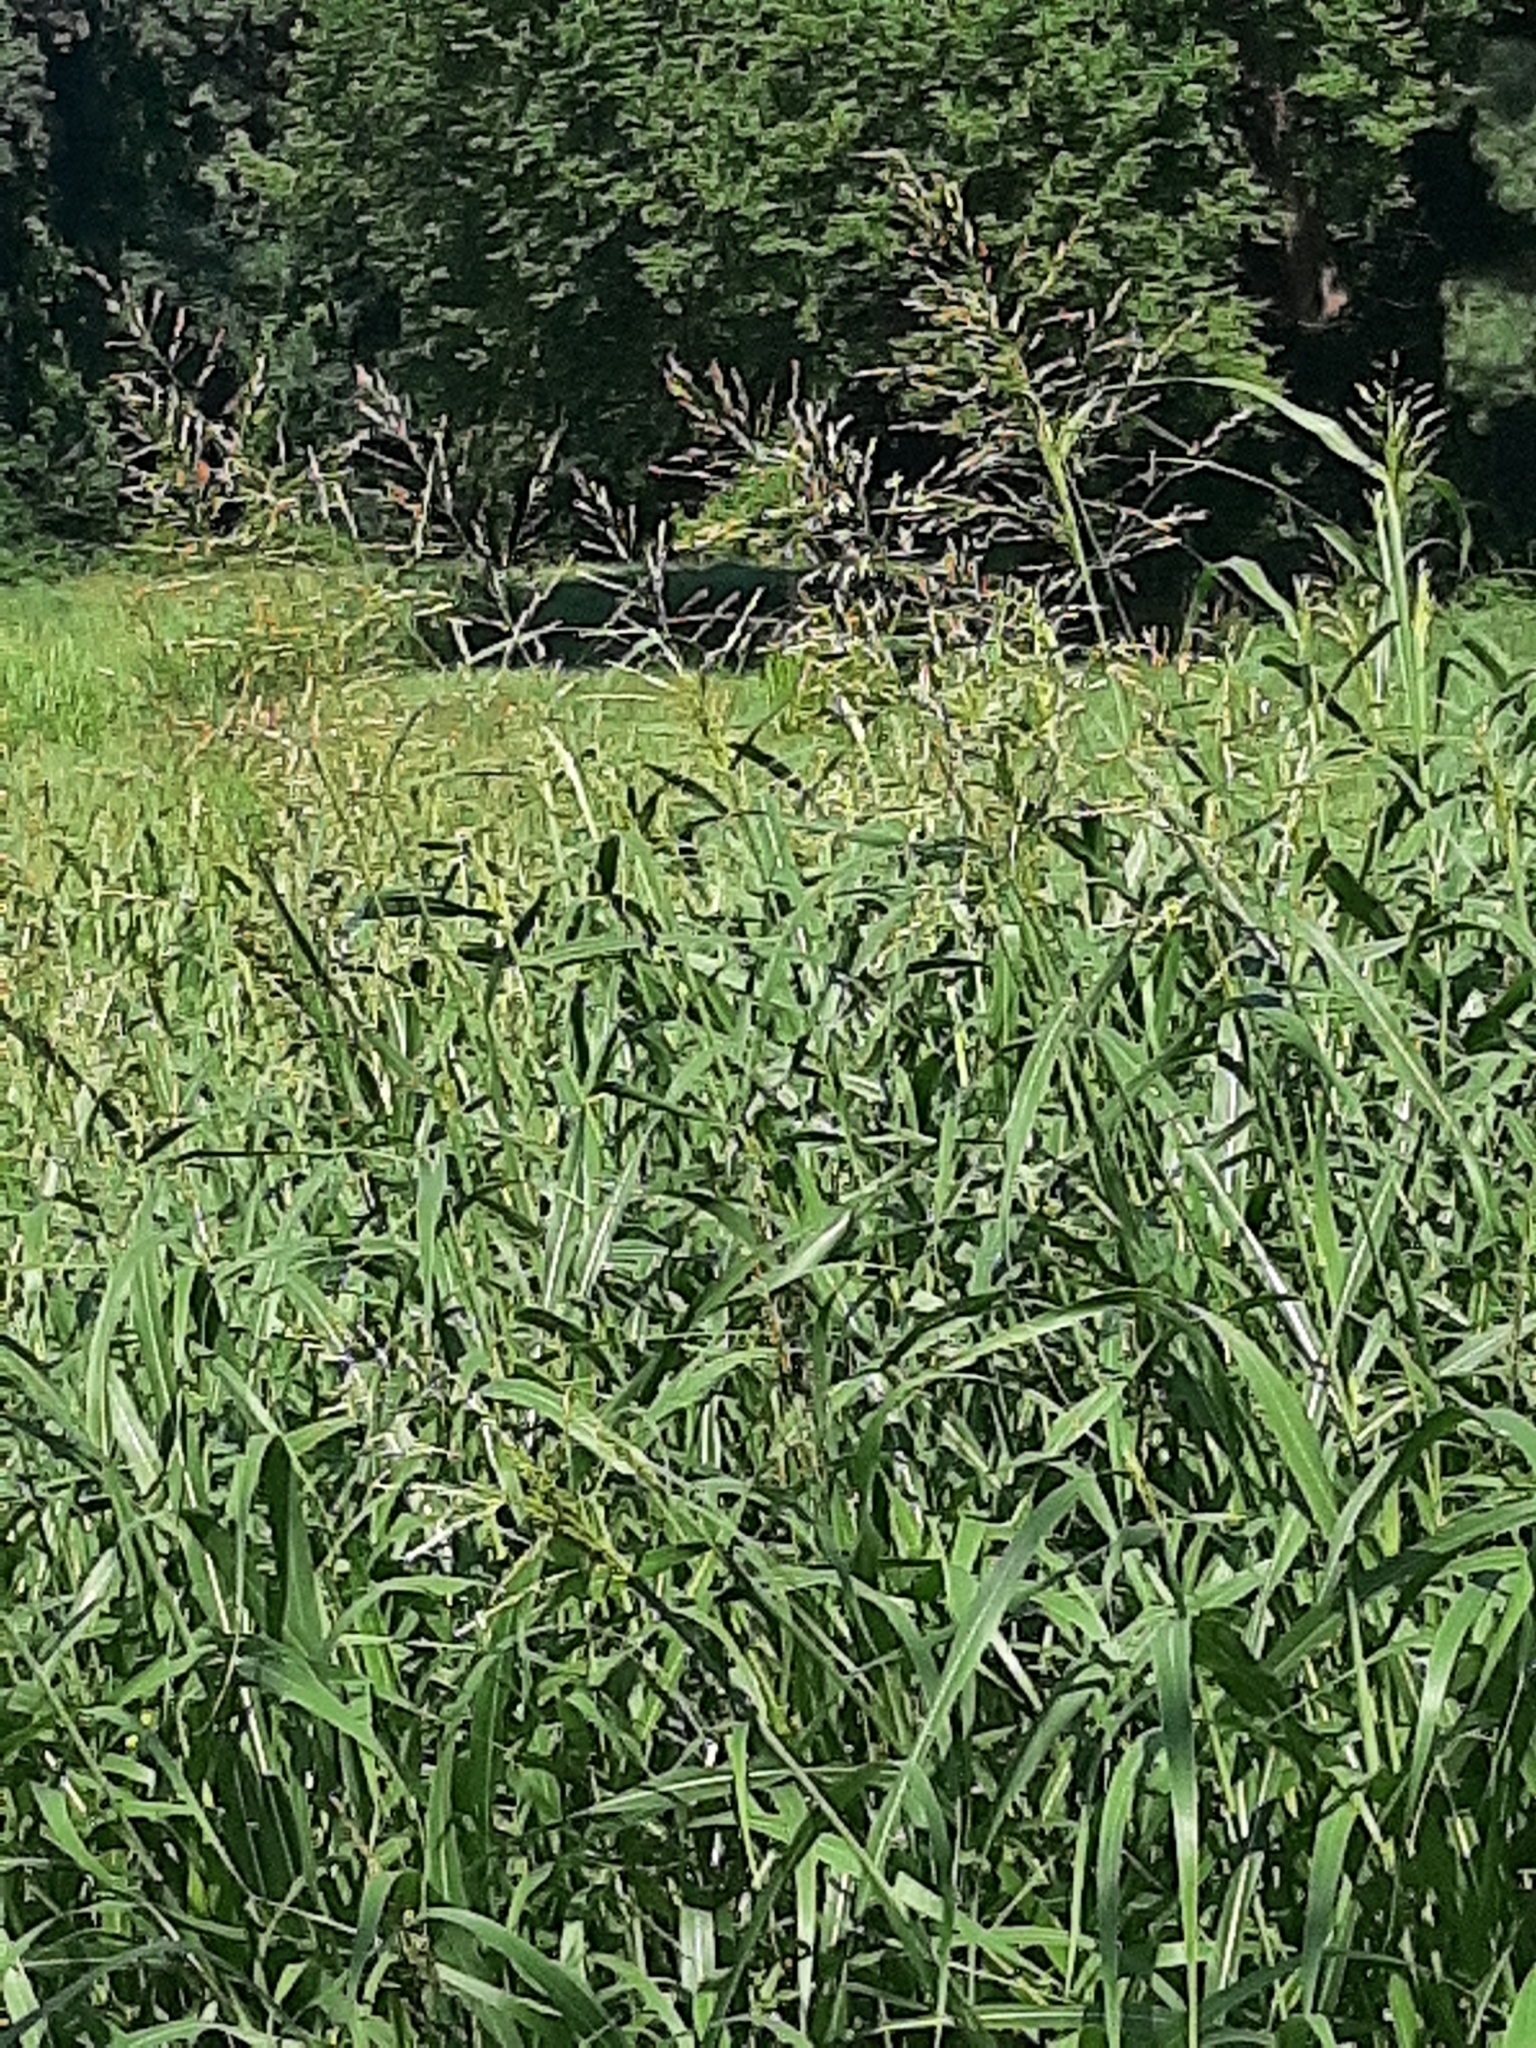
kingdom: Plantae
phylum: Tracheophyta
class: Liliopsida
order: Poales
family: Poaceae
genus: Sorghum
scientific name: Sorghum halepense
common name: Johnson-grass
